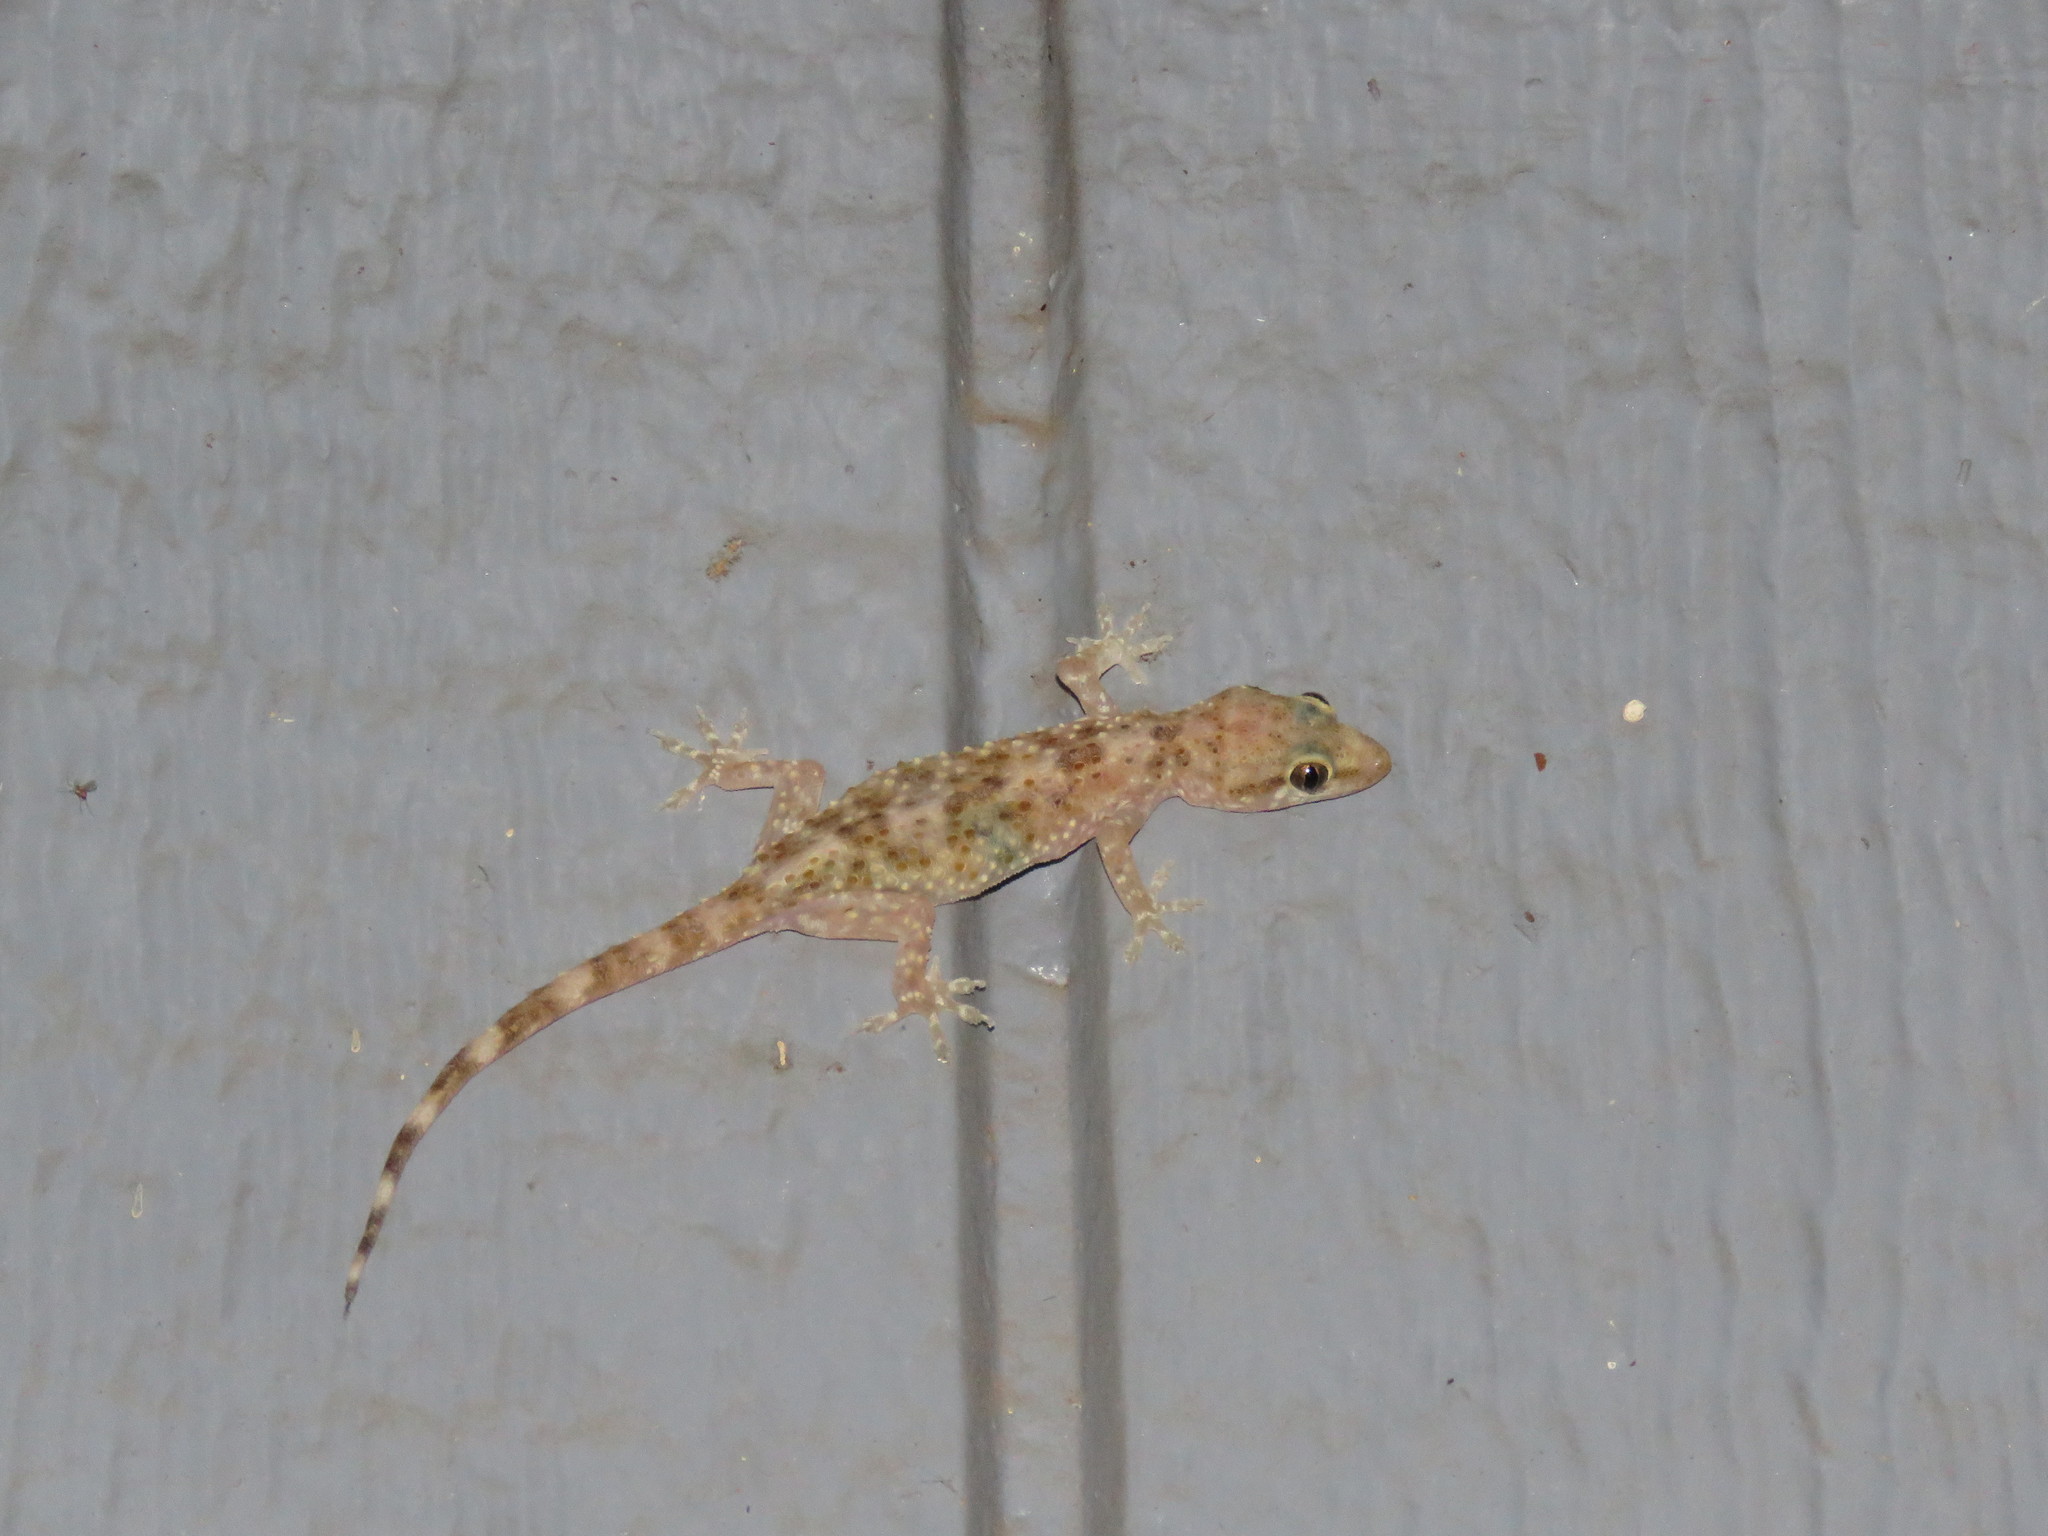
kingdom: Animalia
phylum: Chordata
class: Squamata
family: Gekkonidae
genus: Hemidactylus
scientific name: Hemidactylus turcicus
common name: Turkish gecko
